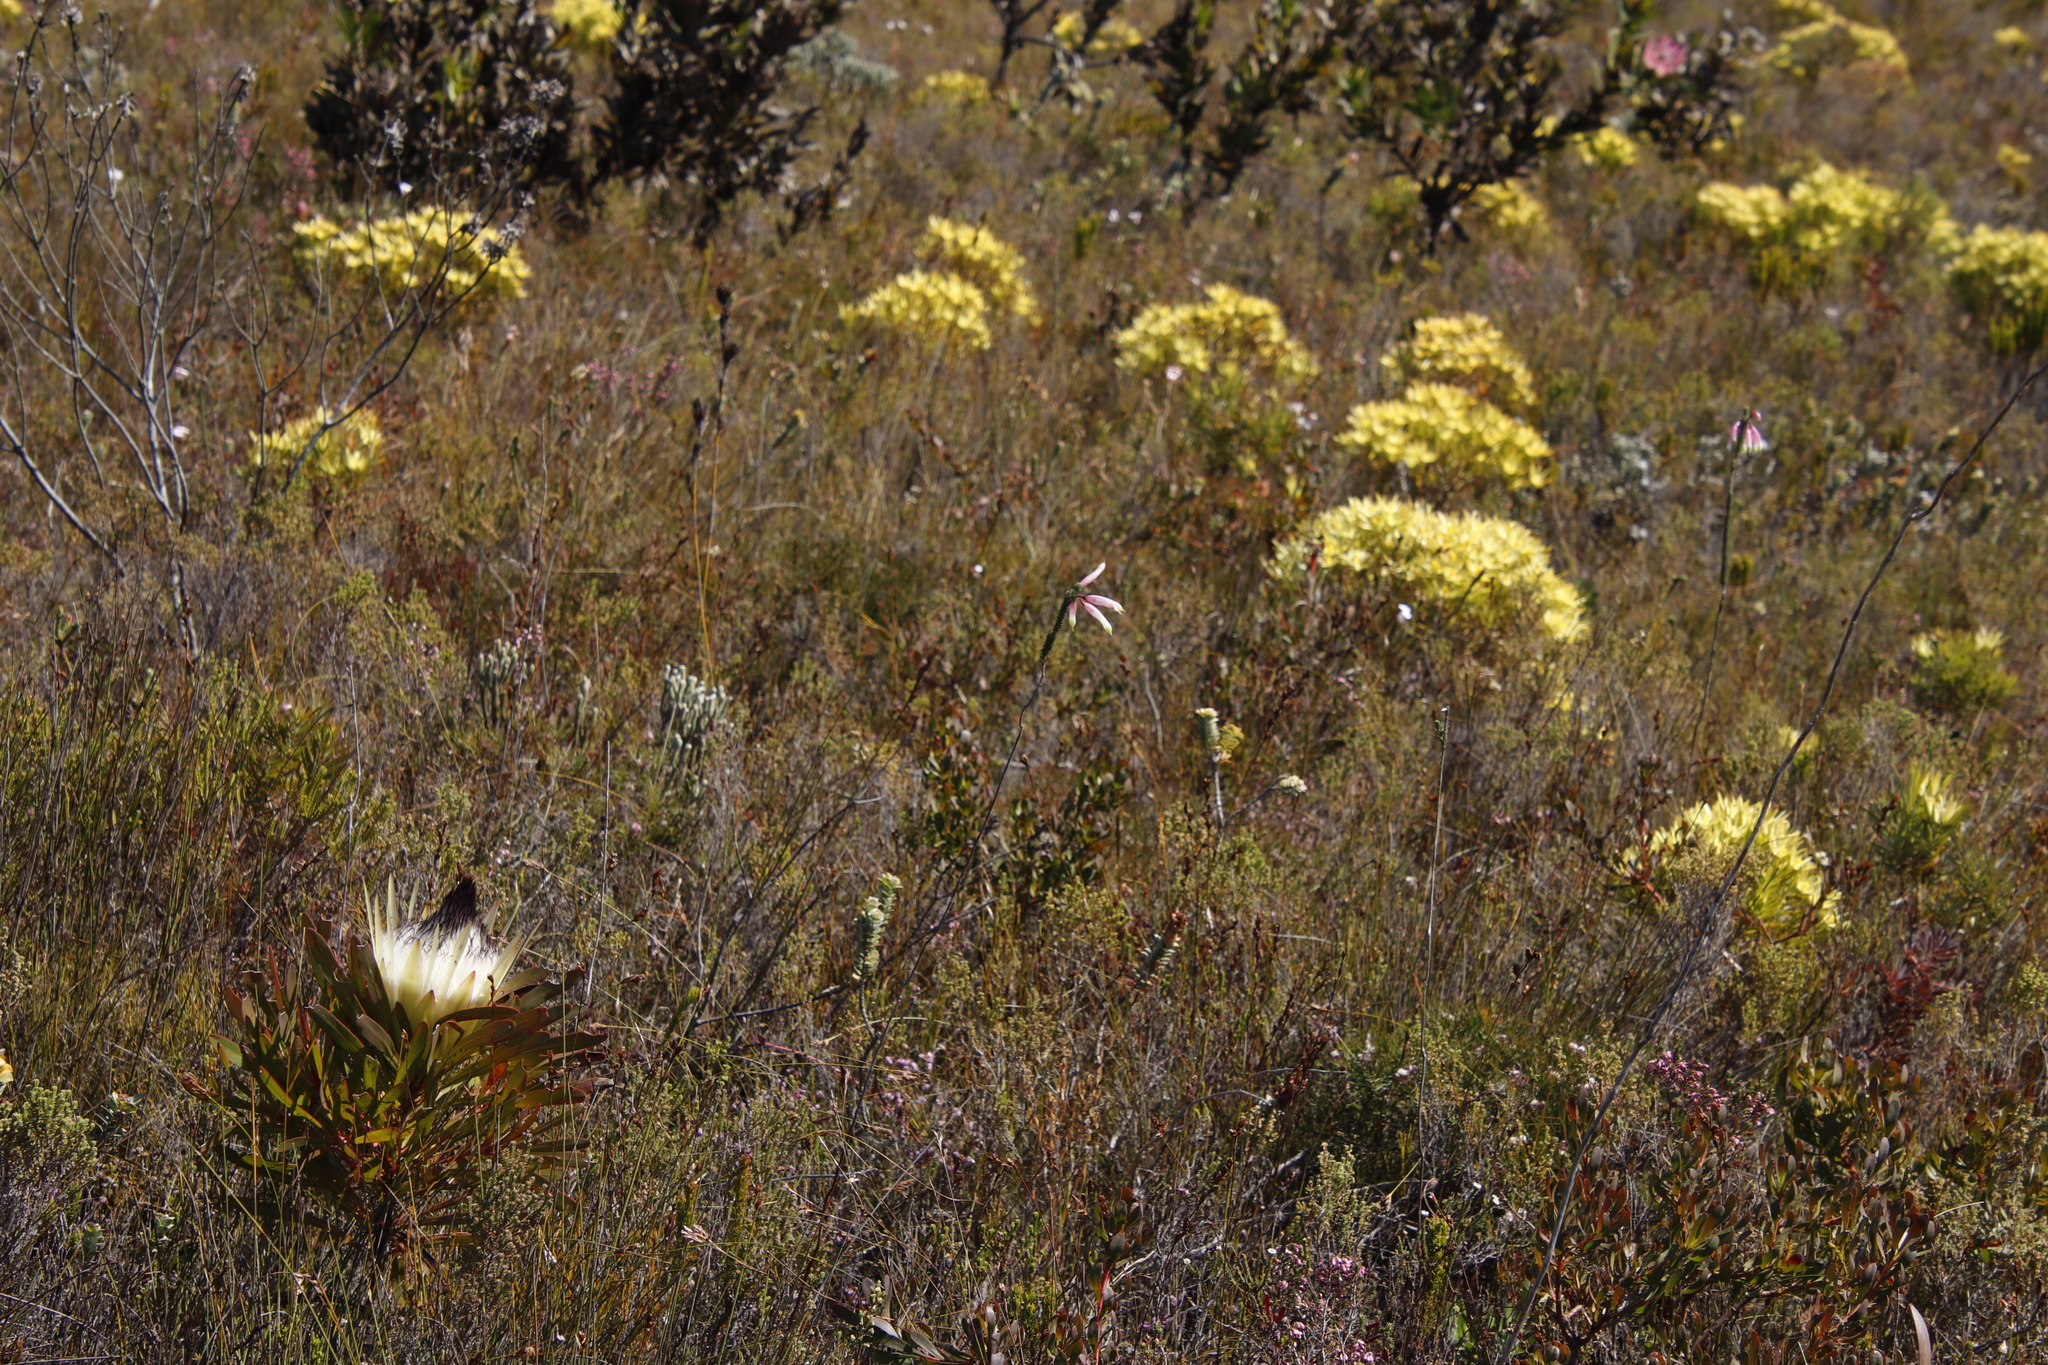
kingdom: Plantae
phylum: Tracheophyta
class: Magnoliopsida
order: Ericales
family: Ericaceae
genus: Erica
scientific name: Erica fascicularis
